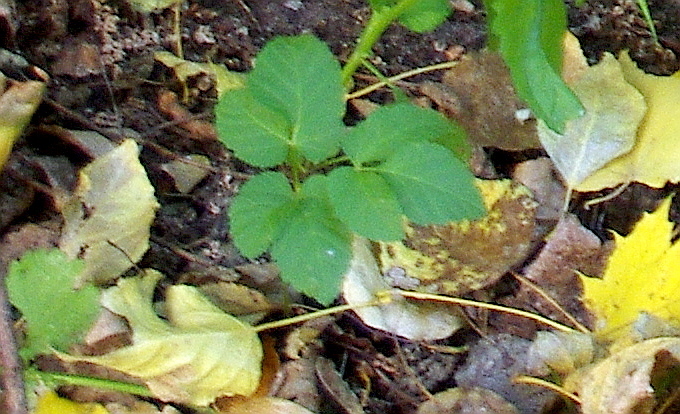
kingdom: Plantae
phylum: Tracheophyta
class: Magnoliopsida
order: Apiales
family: Apiaceae
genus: Aegopodium
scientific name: Aegopodium podagraria
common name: Ground-elder
